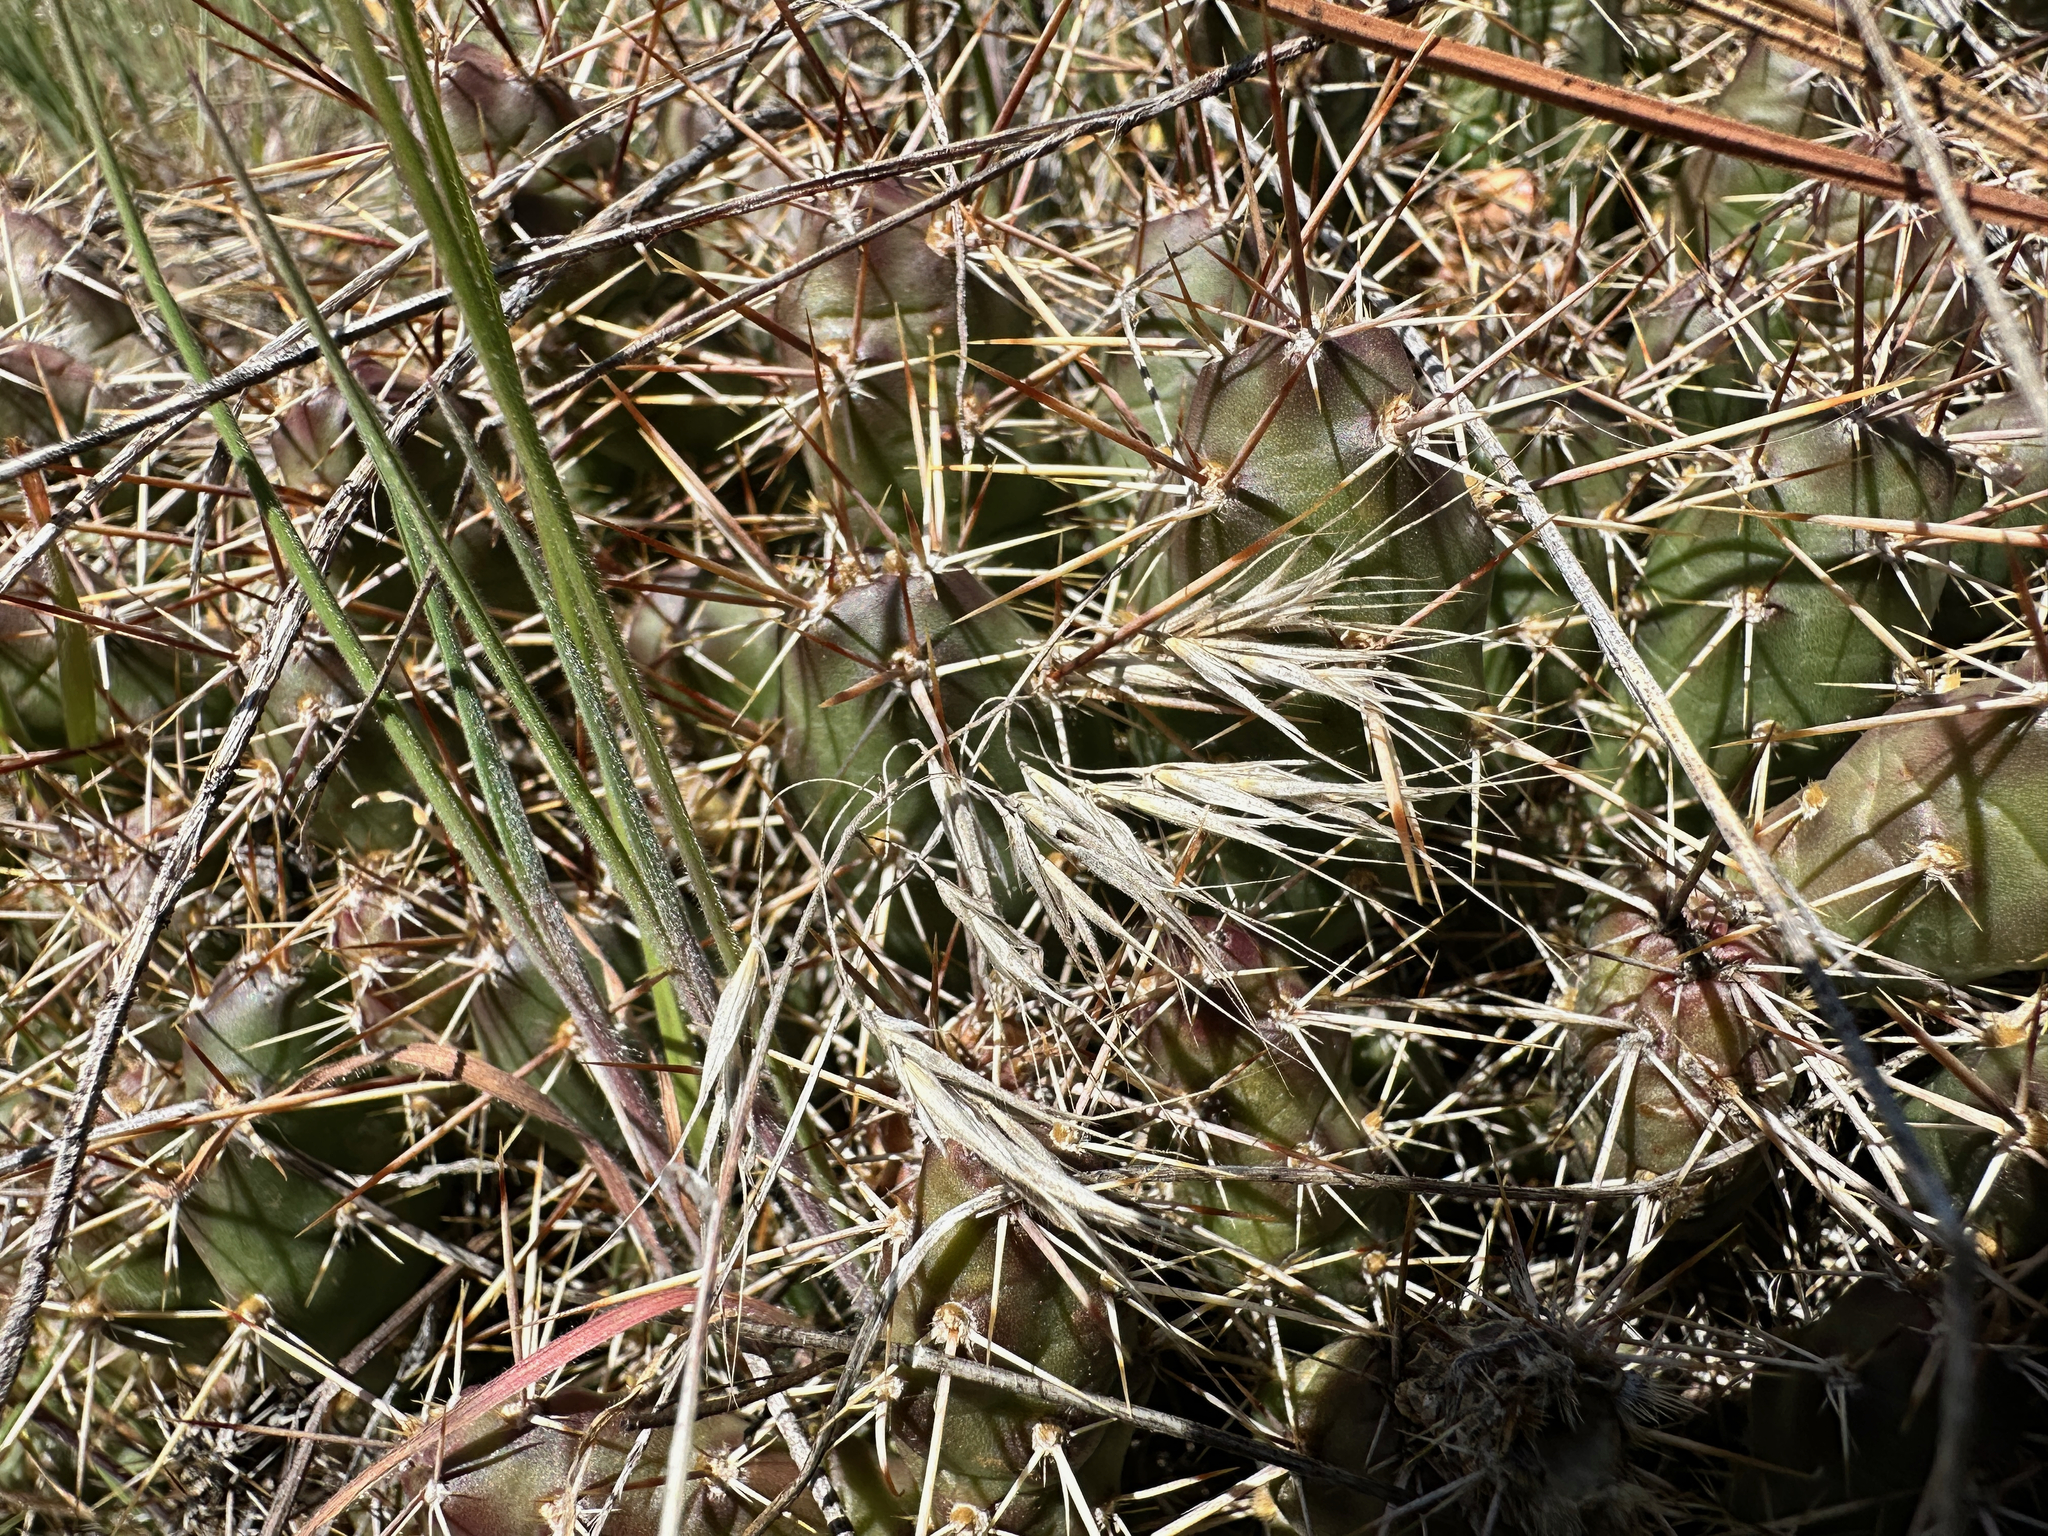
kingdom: Plantae
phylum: Tracheophyta
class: Magnoliopsida
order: Caryophyllales
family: Cactaceae
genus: Opuntia
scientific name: Opuntia fragilis
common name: Brittle cactus
